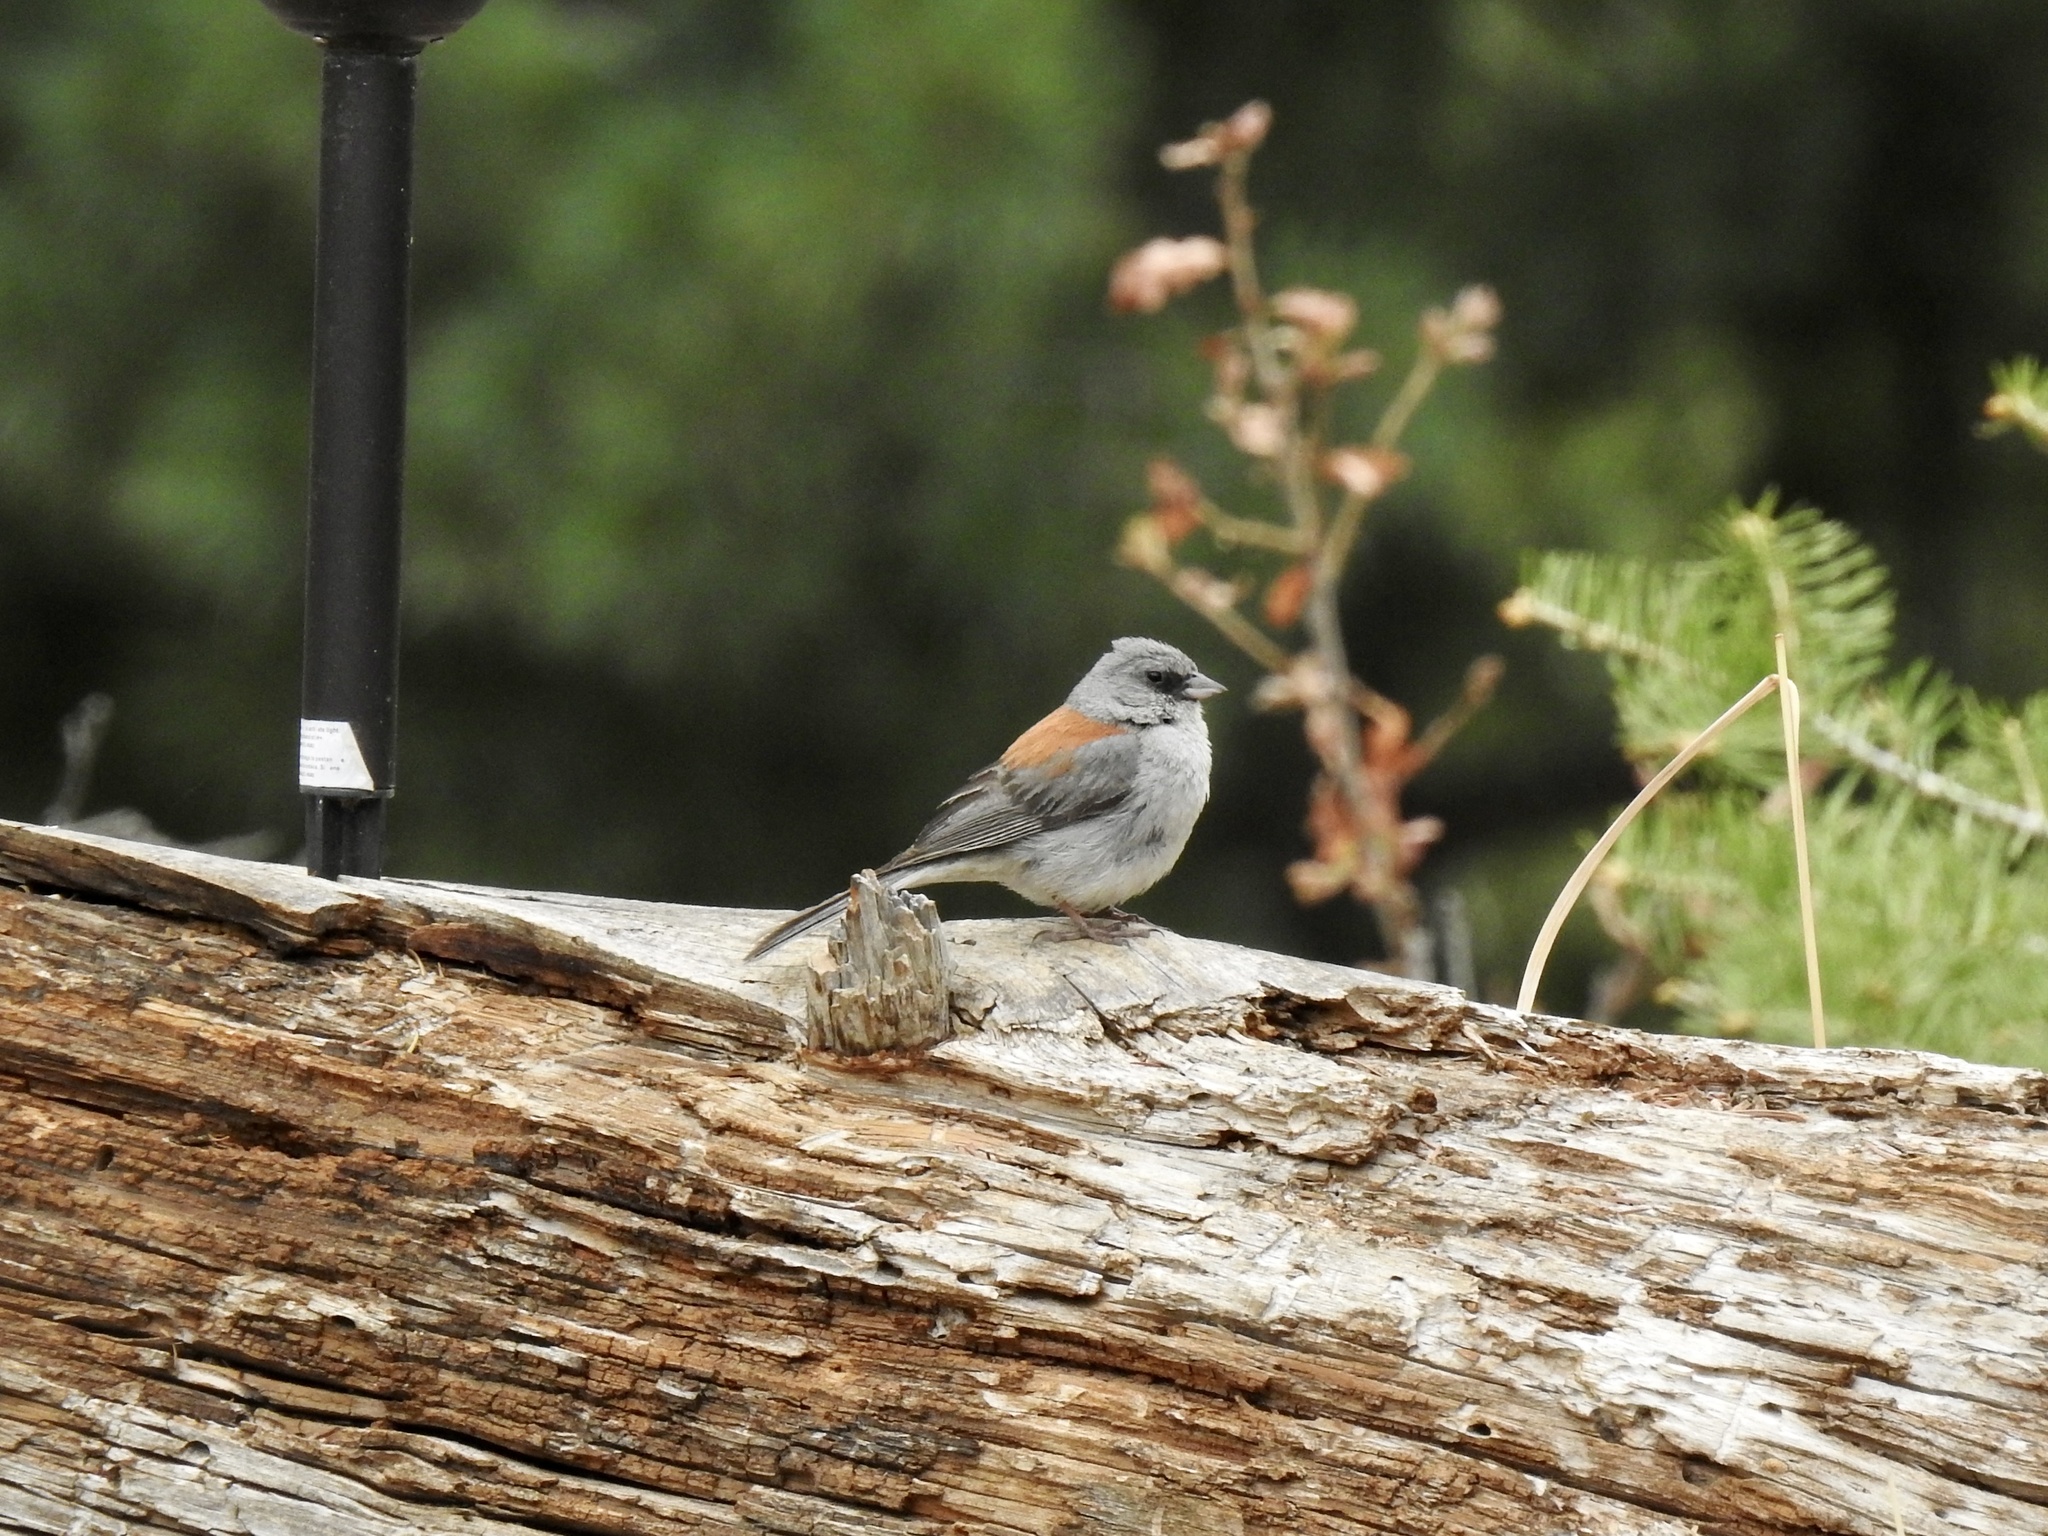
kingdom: Animalia
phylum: Chordata
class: Aves
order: Passeriformes
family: Passerellidae
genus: Junco
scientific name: Junco hyemalis
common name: Dark-eyed junco
